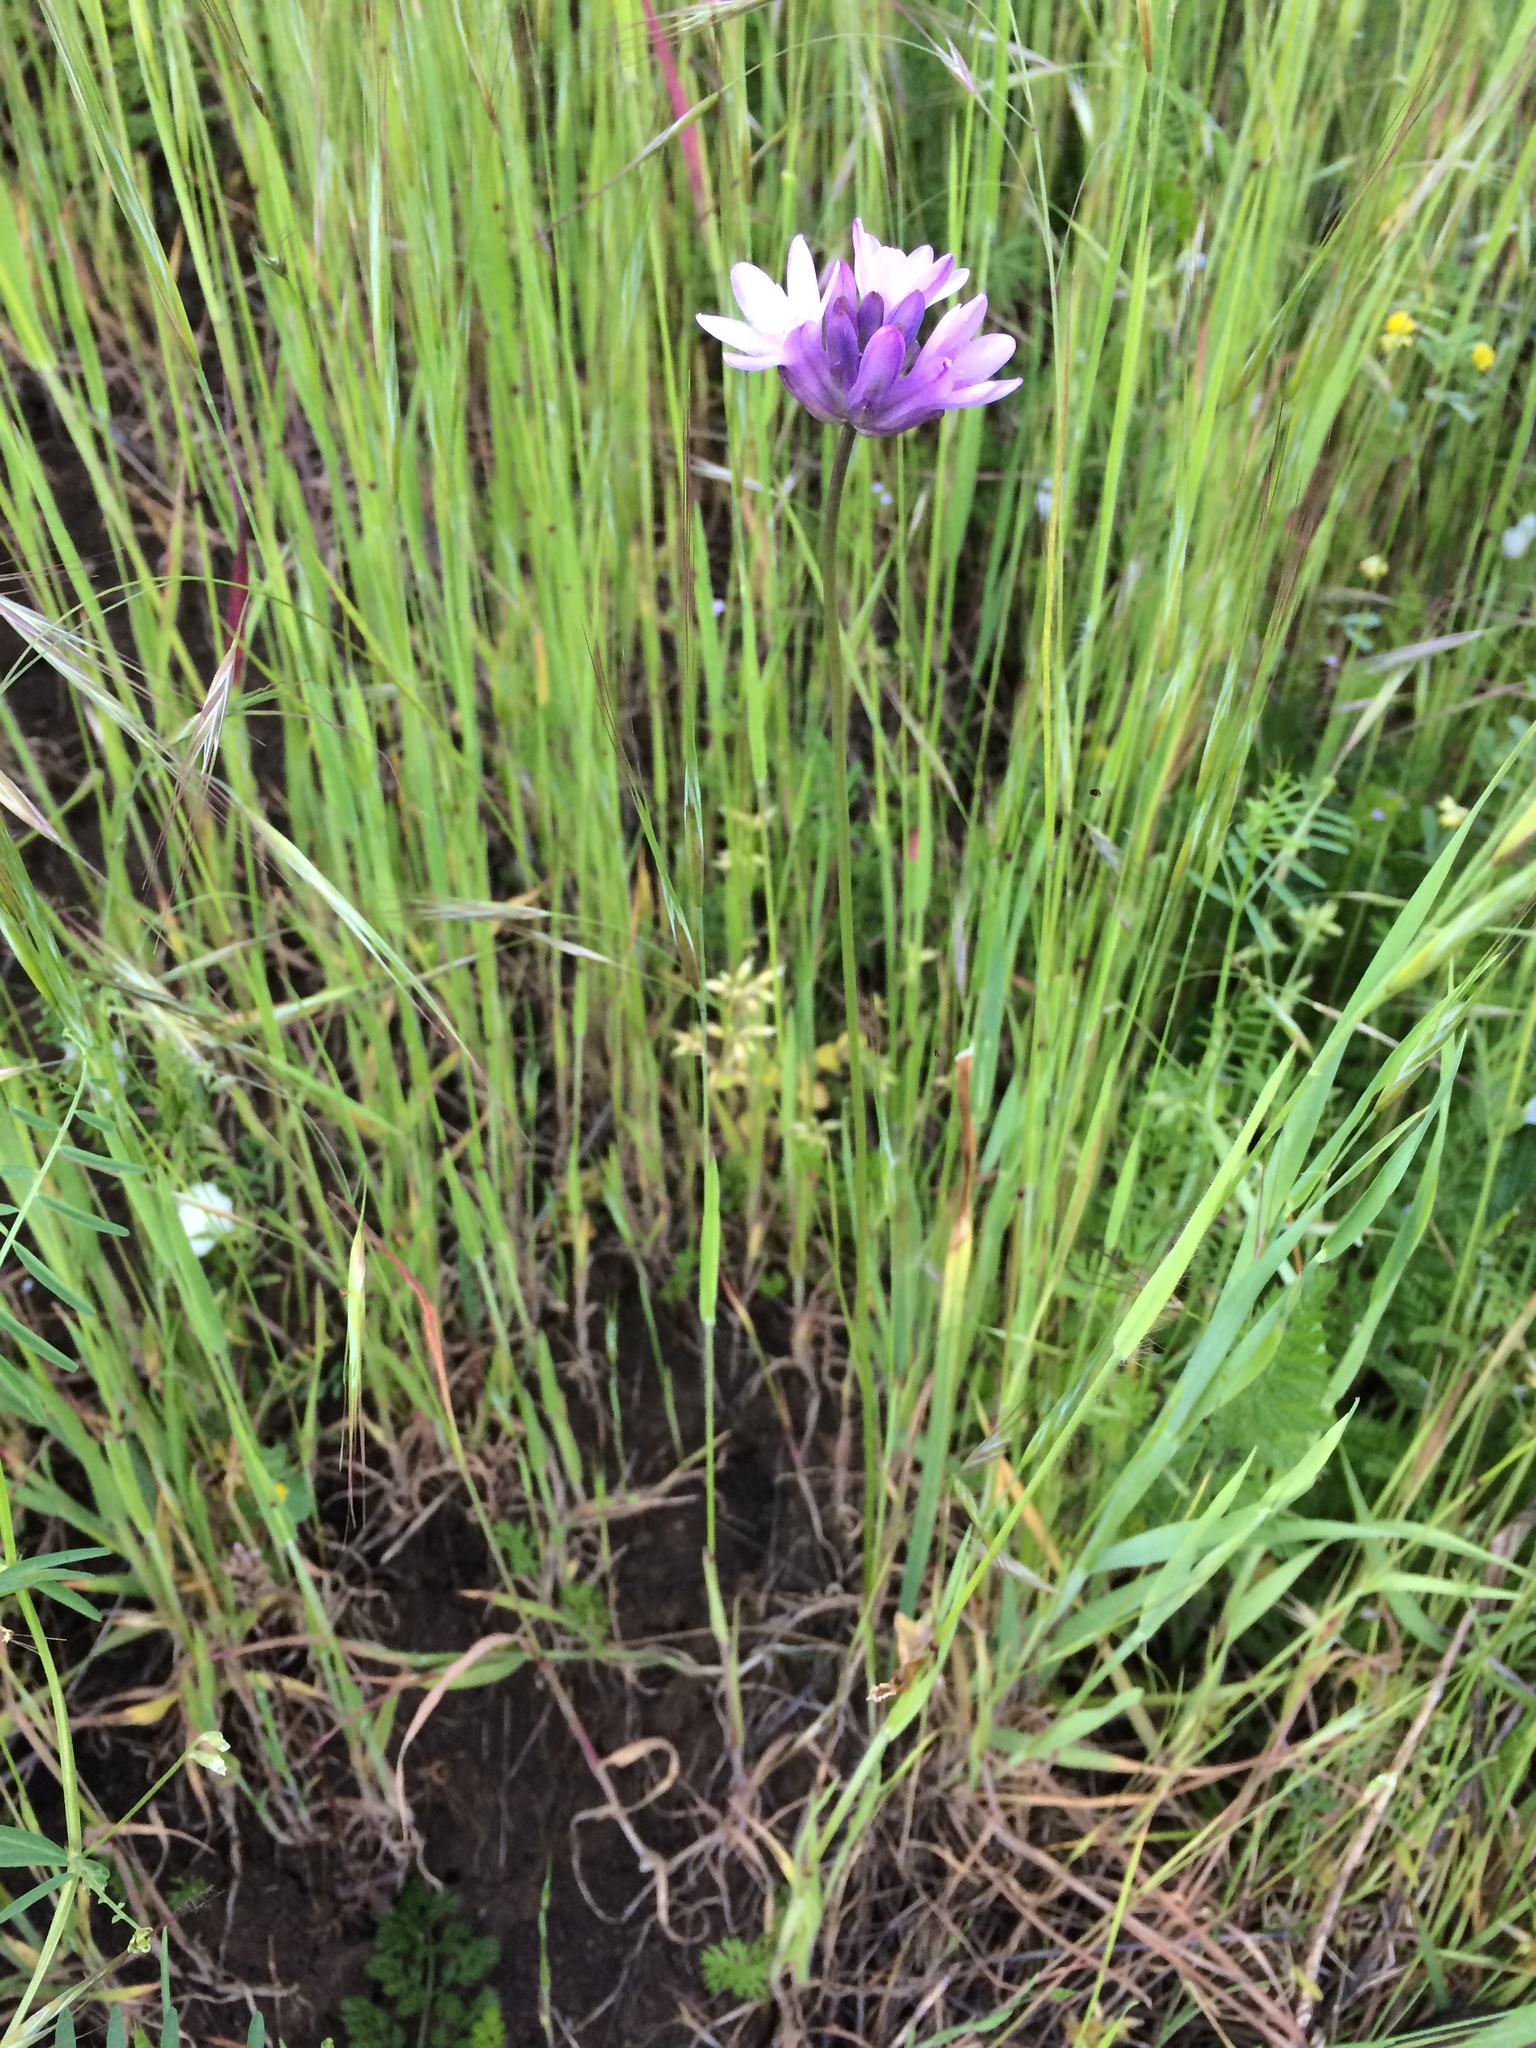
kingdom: Plantae
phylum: Tracheophyta
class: Liliopsida
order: Asparagales
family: Asparagaceae
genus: Dichelostemma
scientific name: Dichelostemma congestum
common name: Fork-tooth ookow
